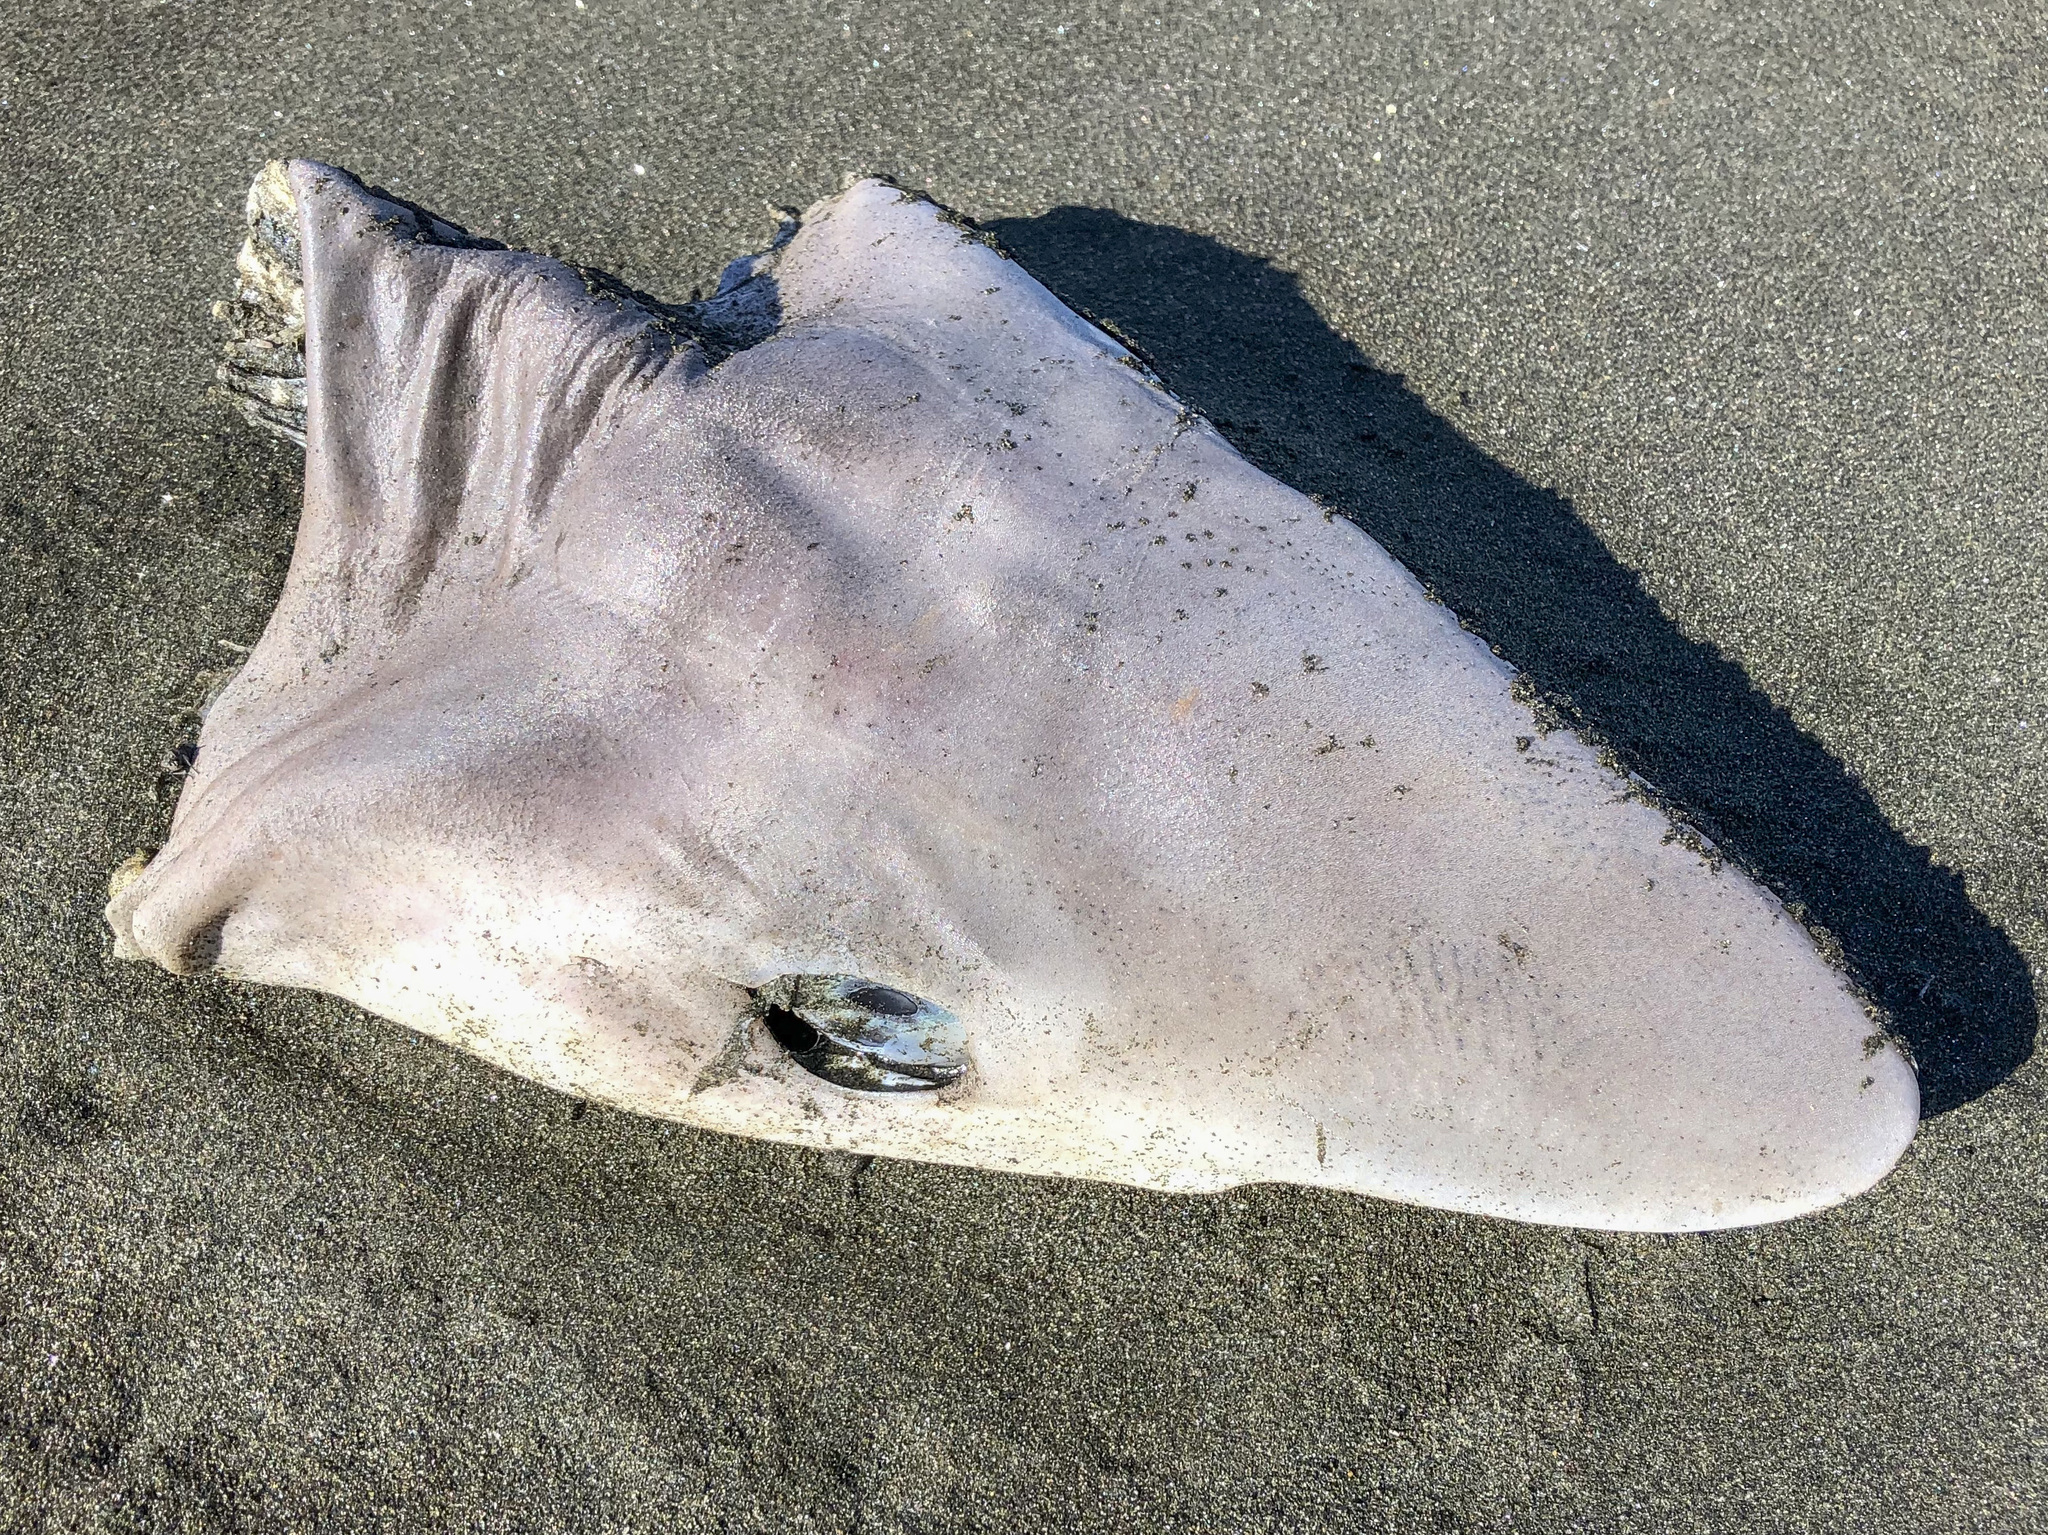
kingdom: Animalia
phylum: Chordata
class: Elasmobranchii
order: Carcharhiniformes
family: Triakidae
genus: Galeorhinus
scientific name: Galeorhinus galeus
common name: Tope
